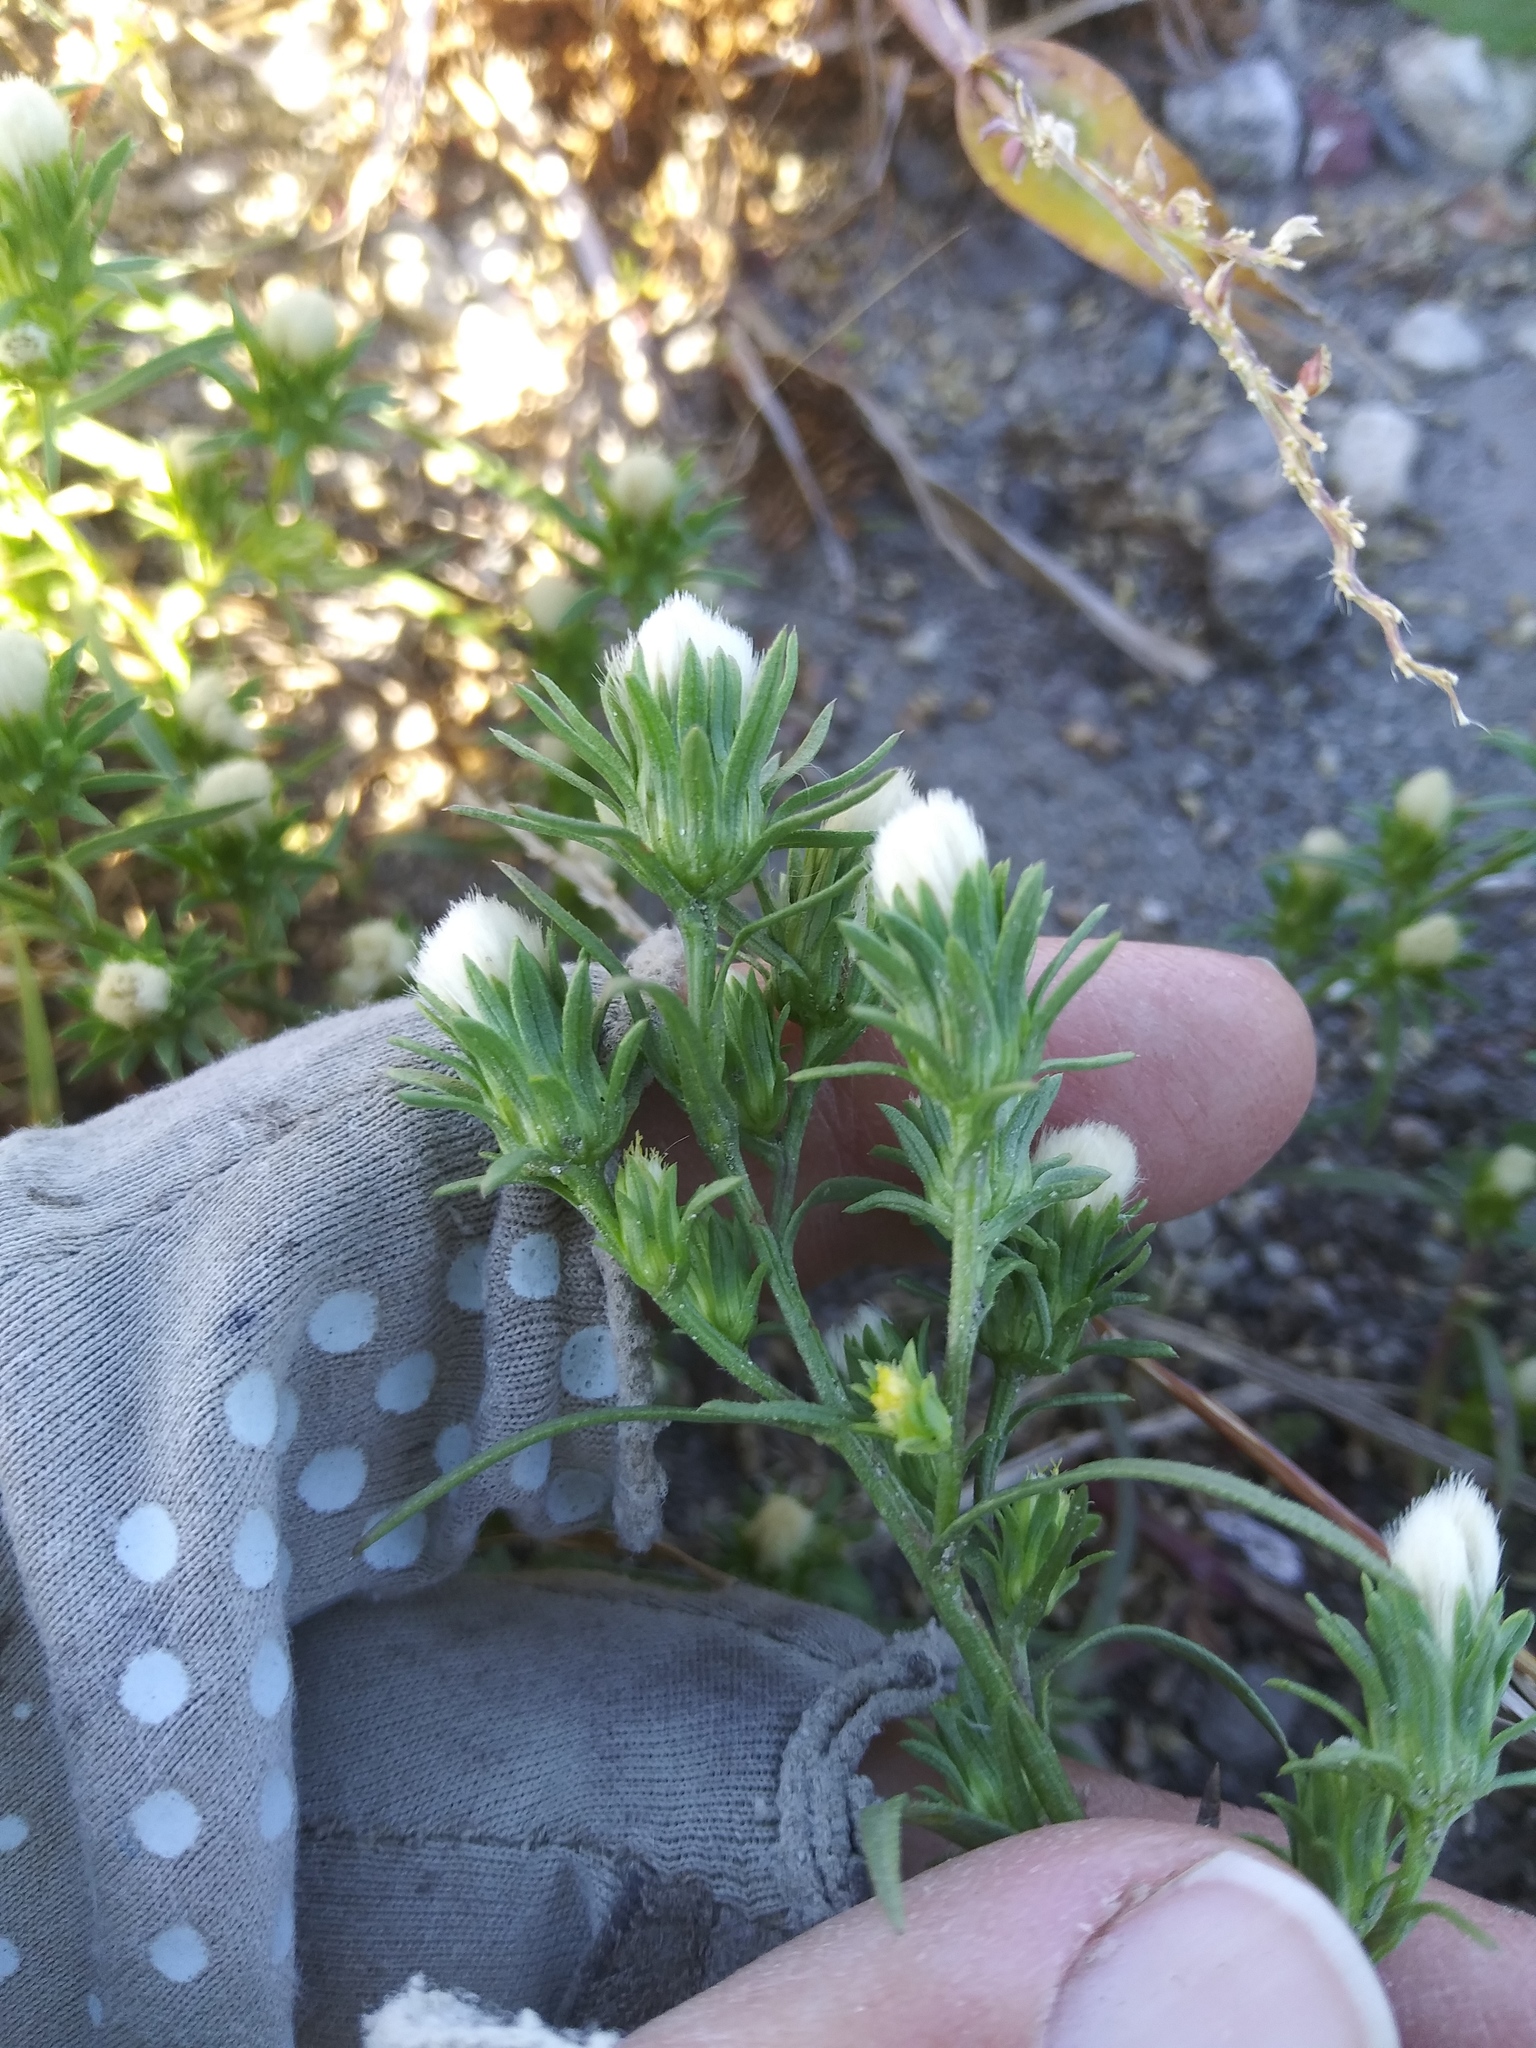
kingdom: Plantae
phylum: Tracheophyta
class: Magnoliopsida
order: Asterales
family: Asteraceae
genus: Symphyotrichum
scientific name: Symphyotrichum ciliatum
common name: Rayless annual aster
